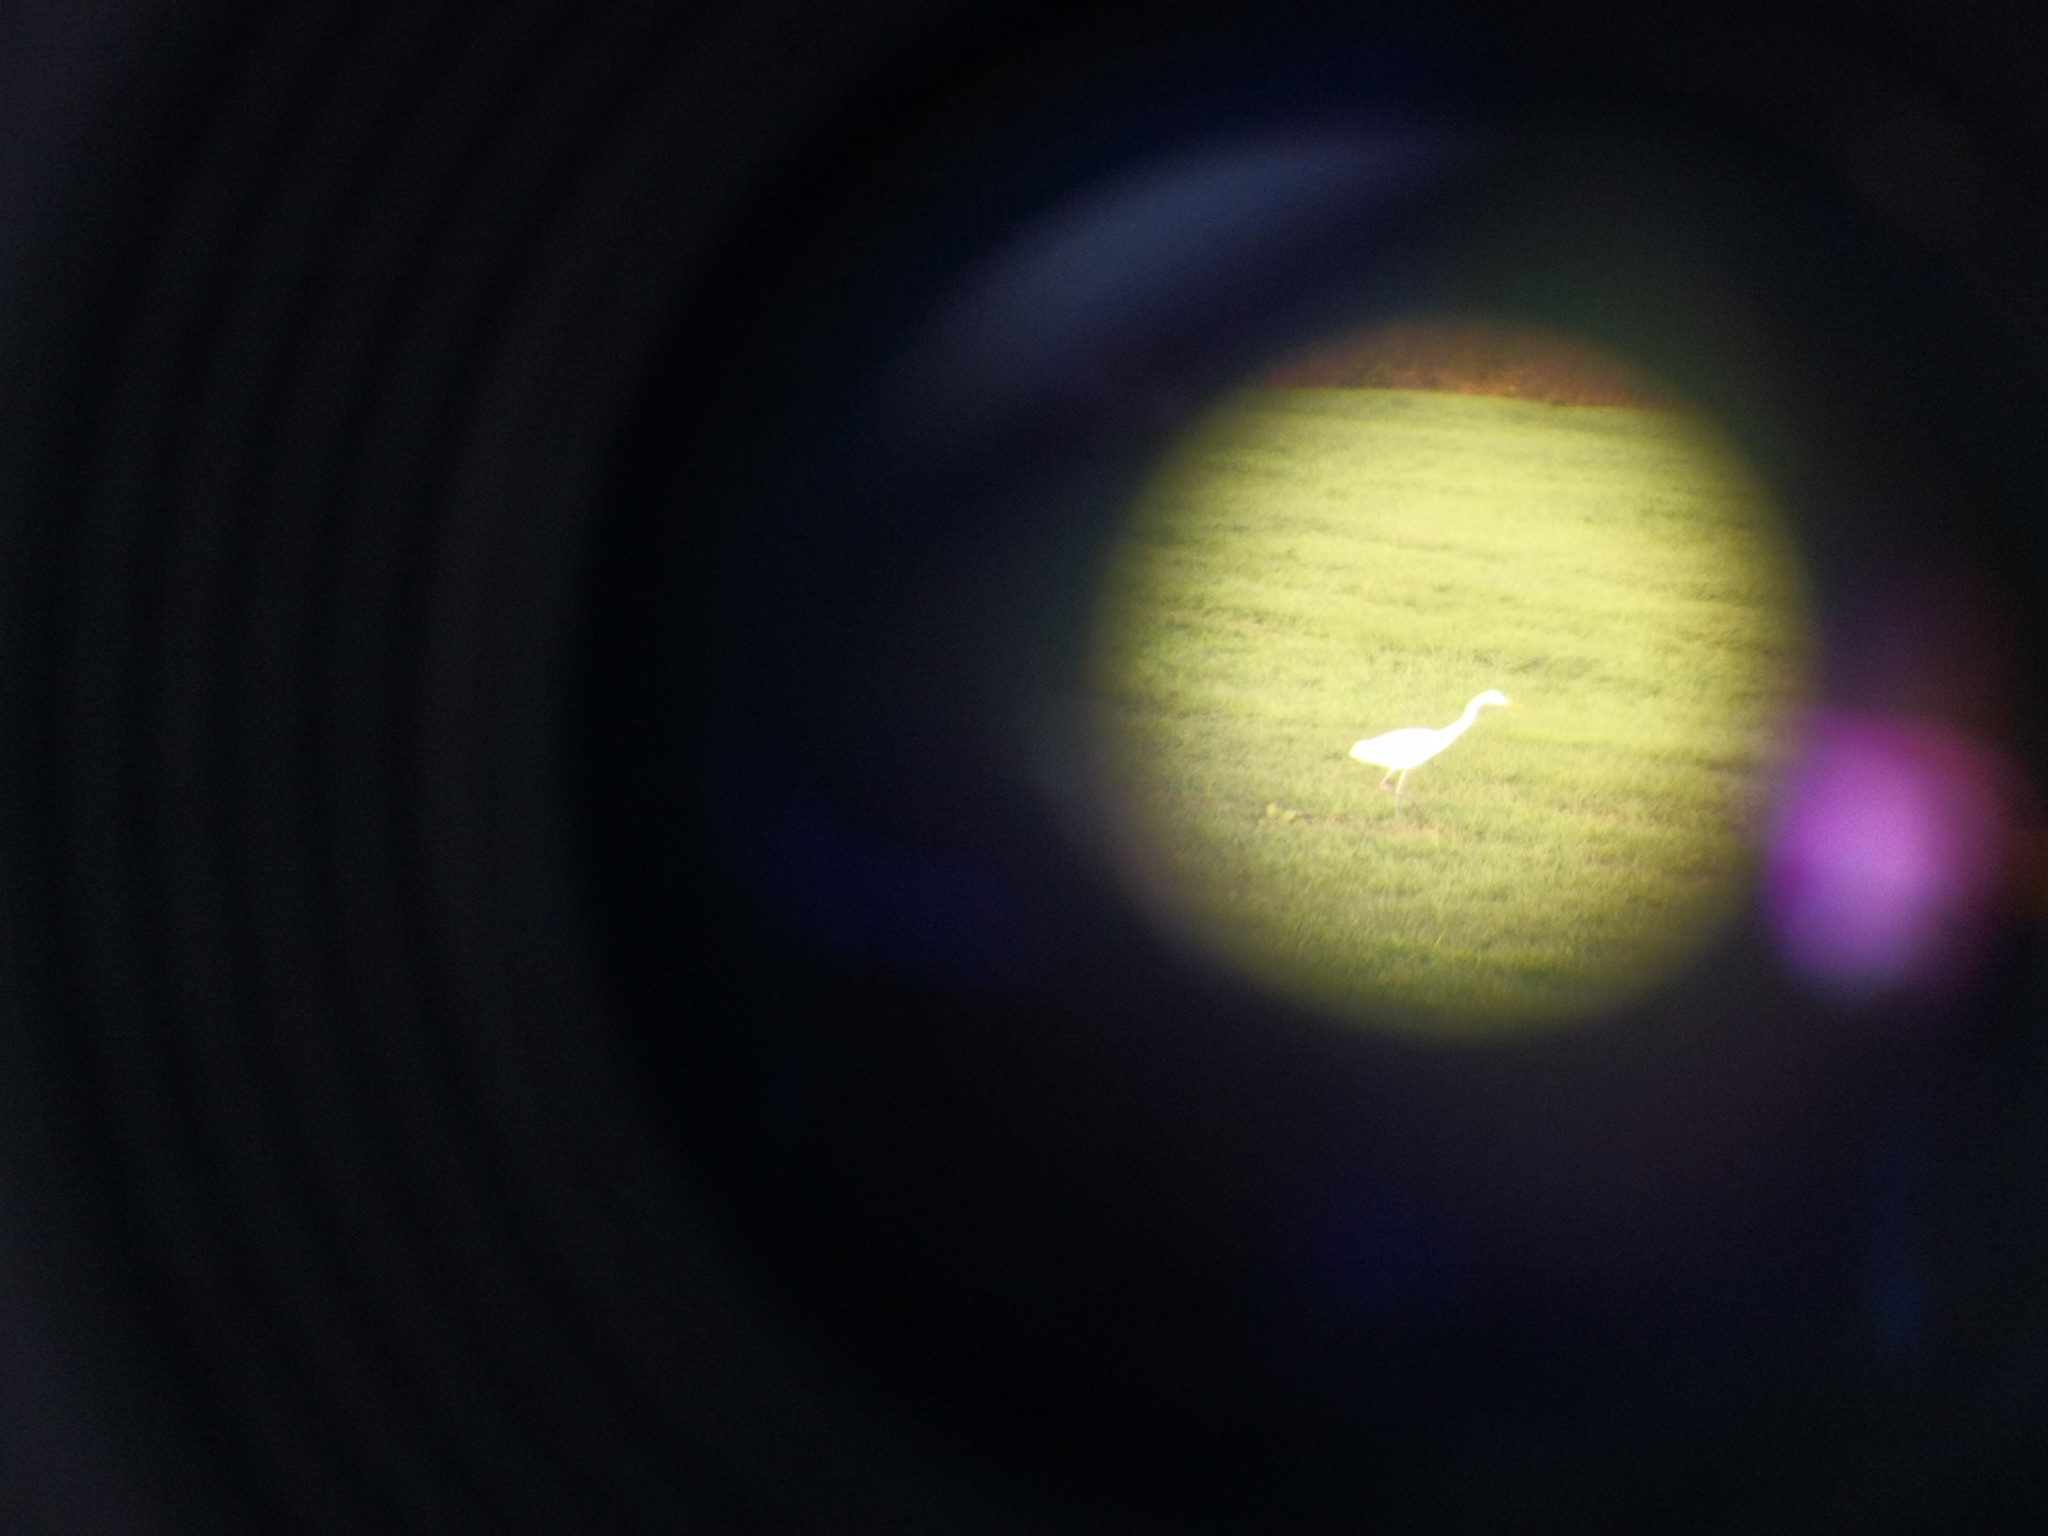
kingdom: Animalia
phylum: Chordata
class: Aves
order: Pelecaniformes
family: Ardeidae
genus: Ardea
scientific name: Ardea alba
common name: Great egret
